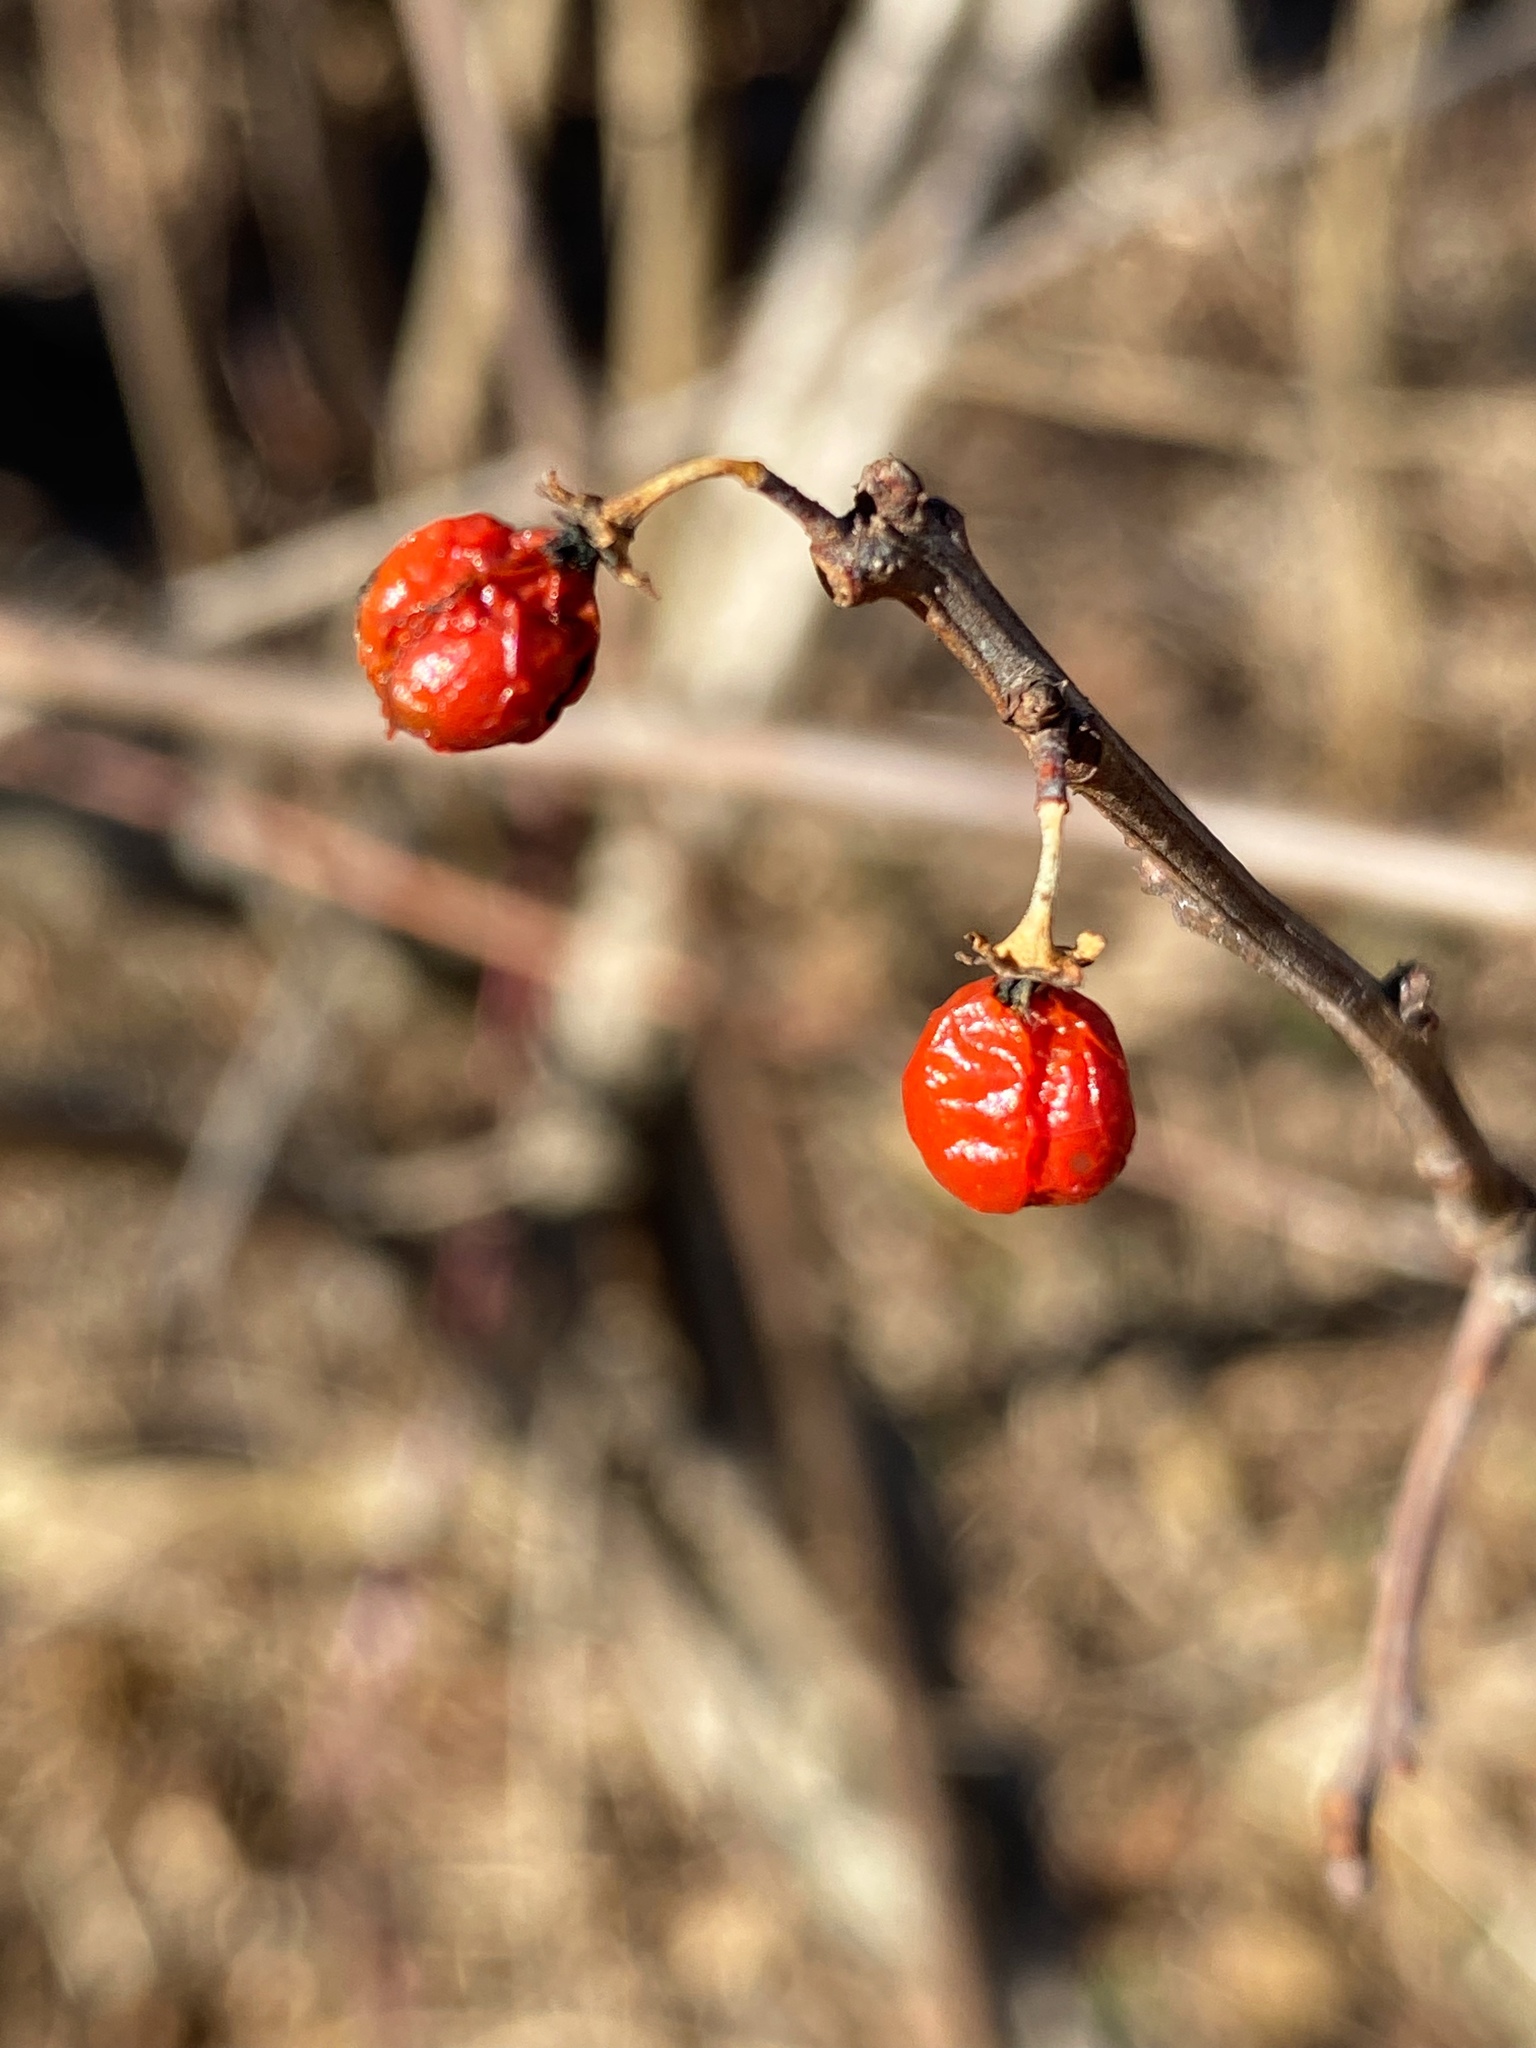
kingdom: Plantae
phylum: Tracheophyta
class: Magnoliopsida
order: Celastrales
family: Celastraceae
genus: Celastrus
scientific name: Celastrus orbiculatus
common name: Oriental bittersweet
